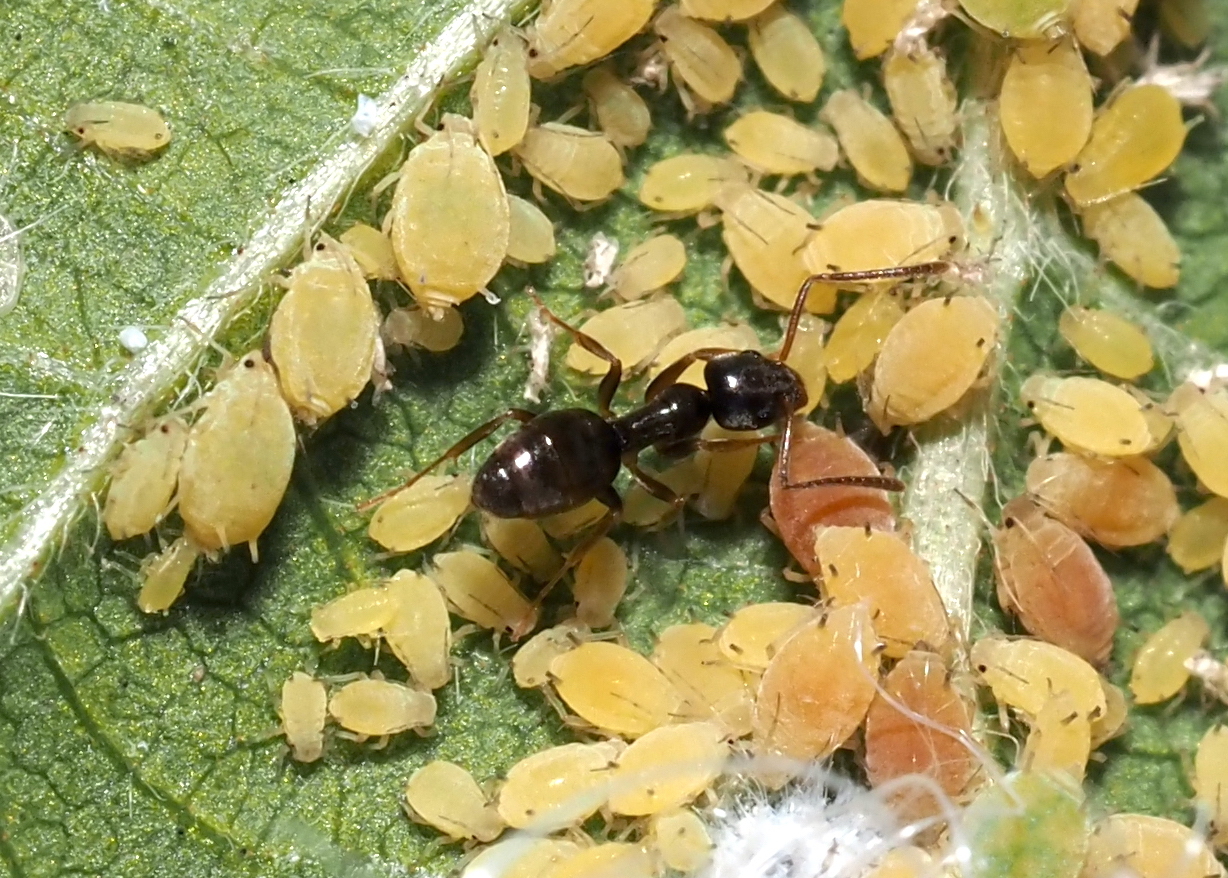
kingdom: Animalia
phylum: Arthropoda
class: Insecta
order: Hymenoptera
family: Formicidae
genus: Tapinoma
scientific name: Tapinoma sessile
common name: Odorous house ant
